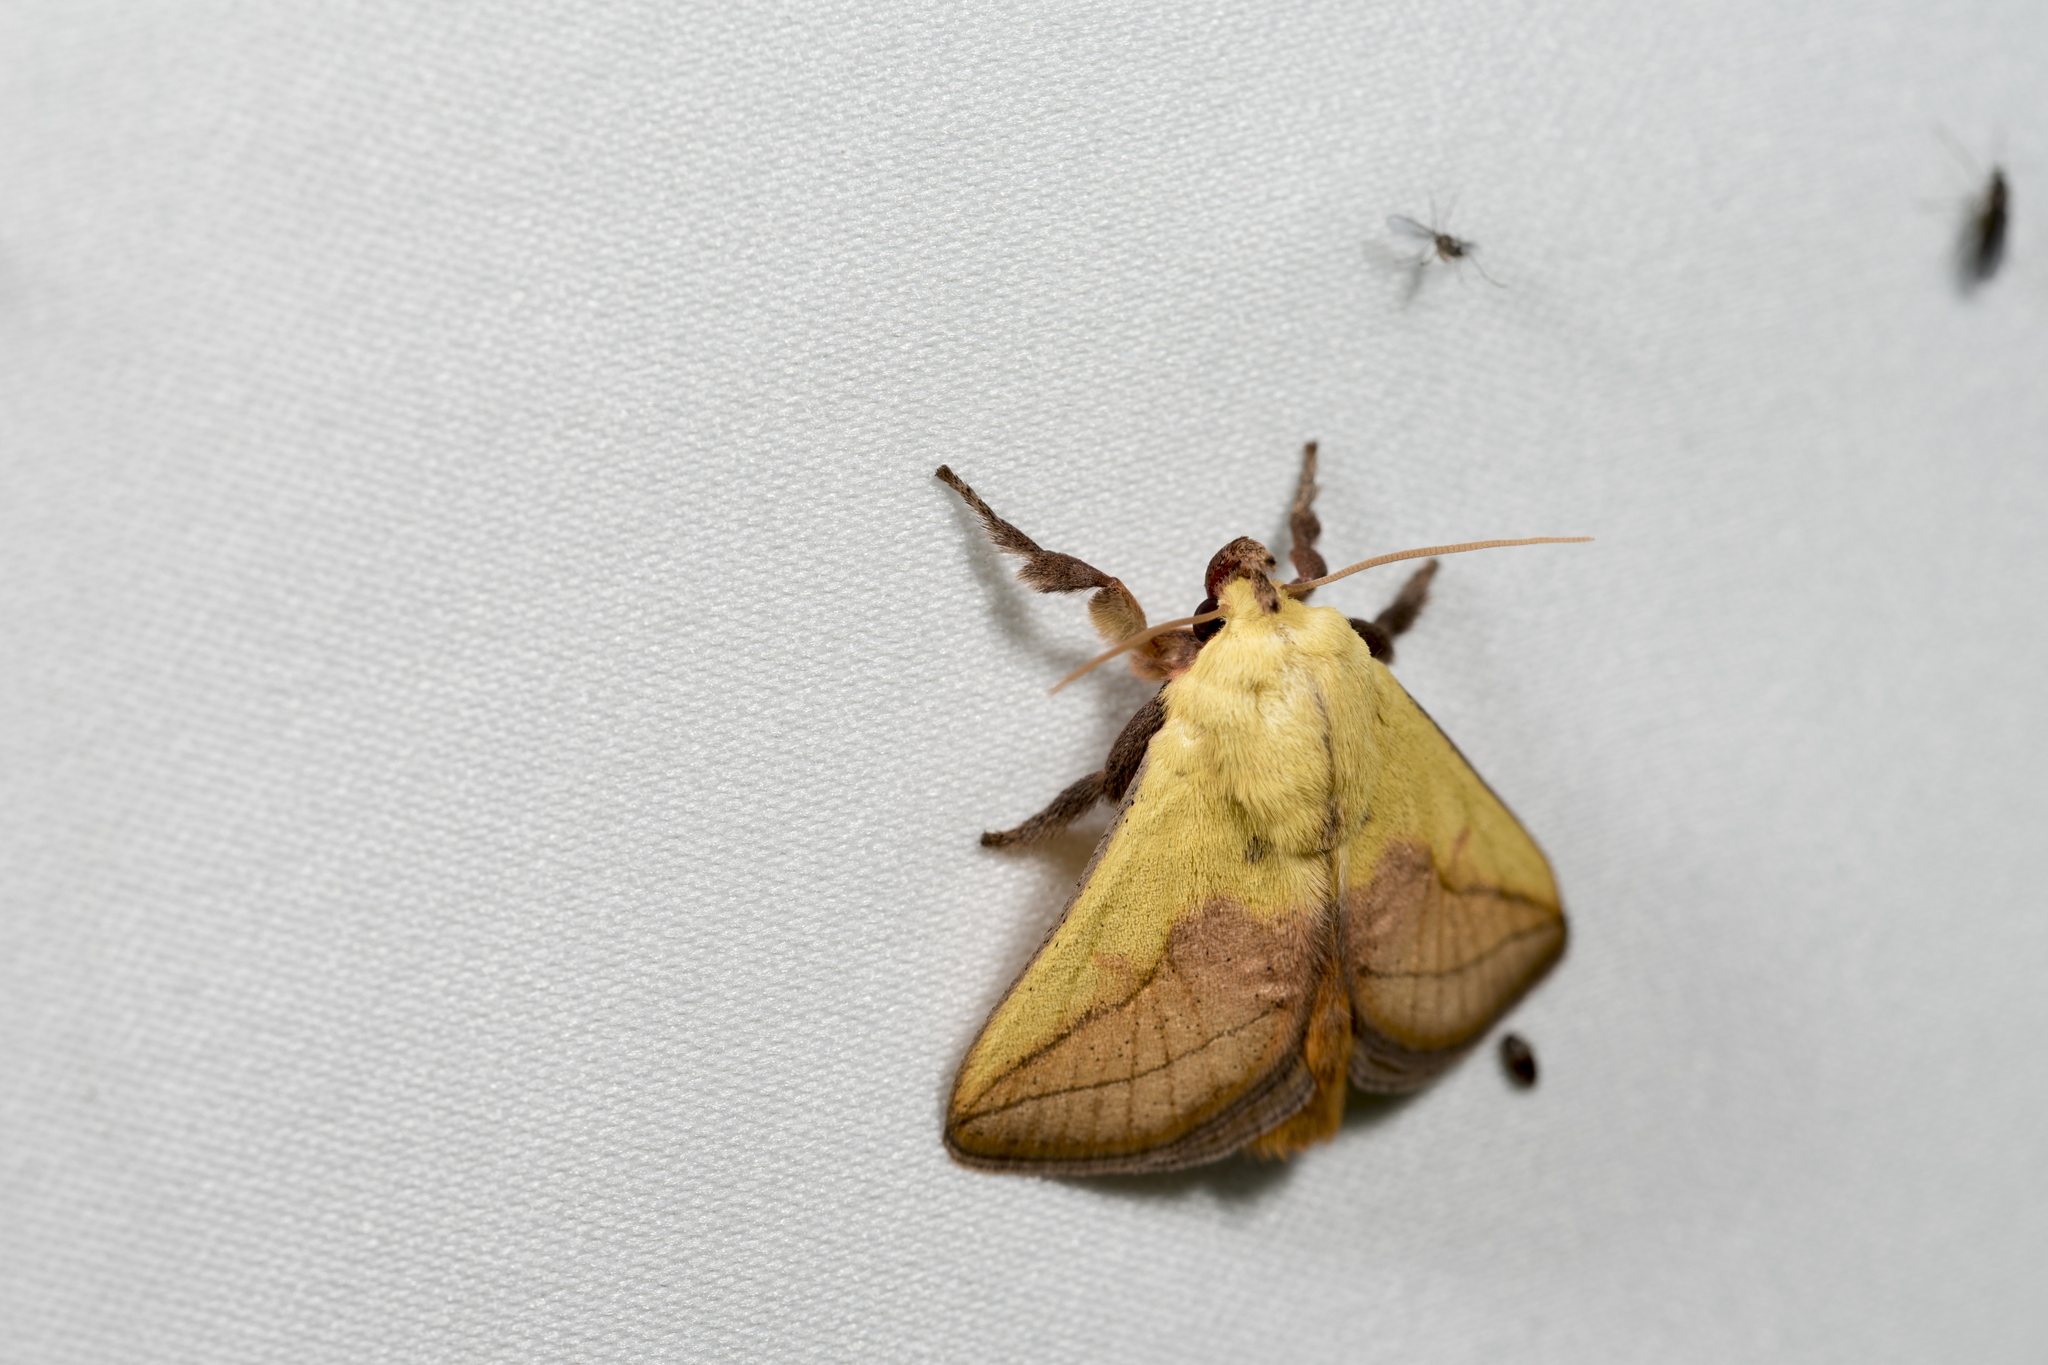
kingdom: Animalia
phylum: Arthropoda
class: Insecta
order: Lepidoptera
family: Limacodidae
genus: Monema
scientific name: Monema flavescens
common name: Oriental moth
